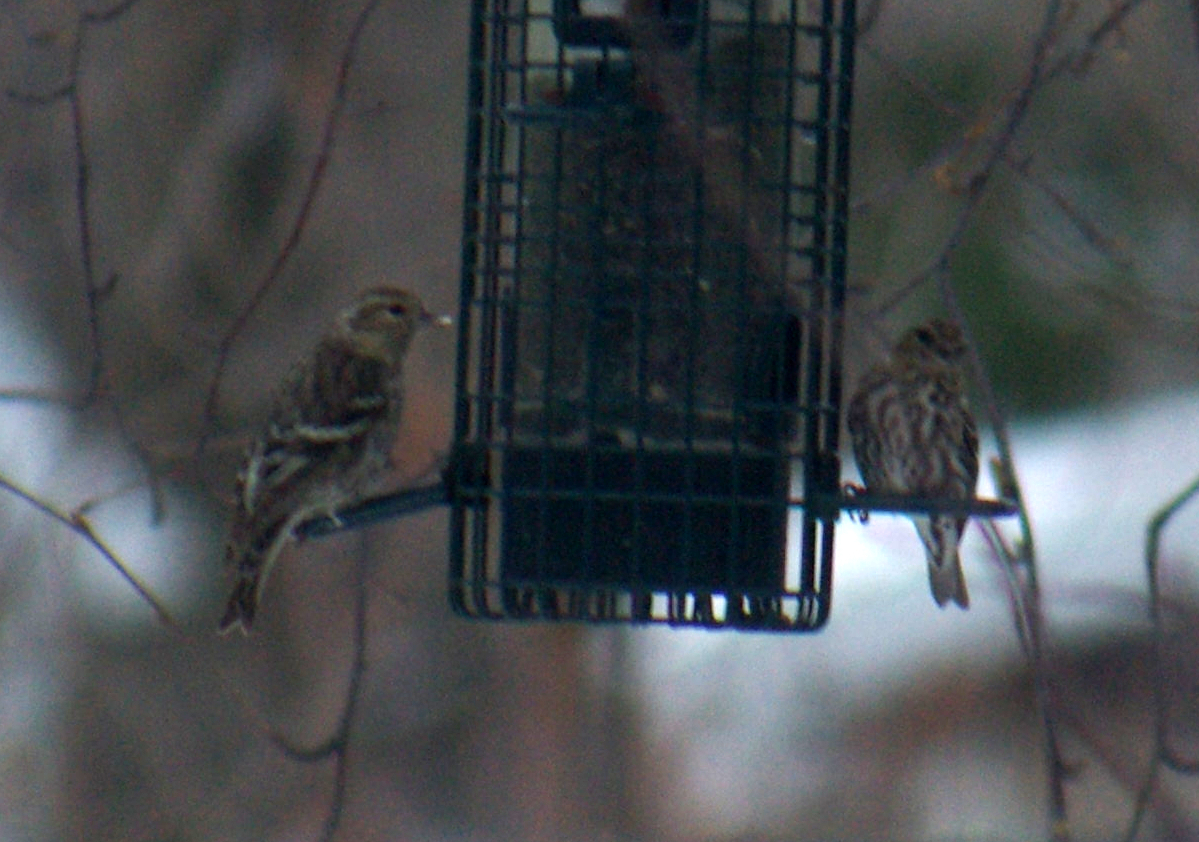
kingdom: Animalia
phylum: Chordata
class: Aves
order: Passeriformes
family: Fringillidae
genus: Spinus
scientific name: Spinus pinus
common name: Pine siskin
